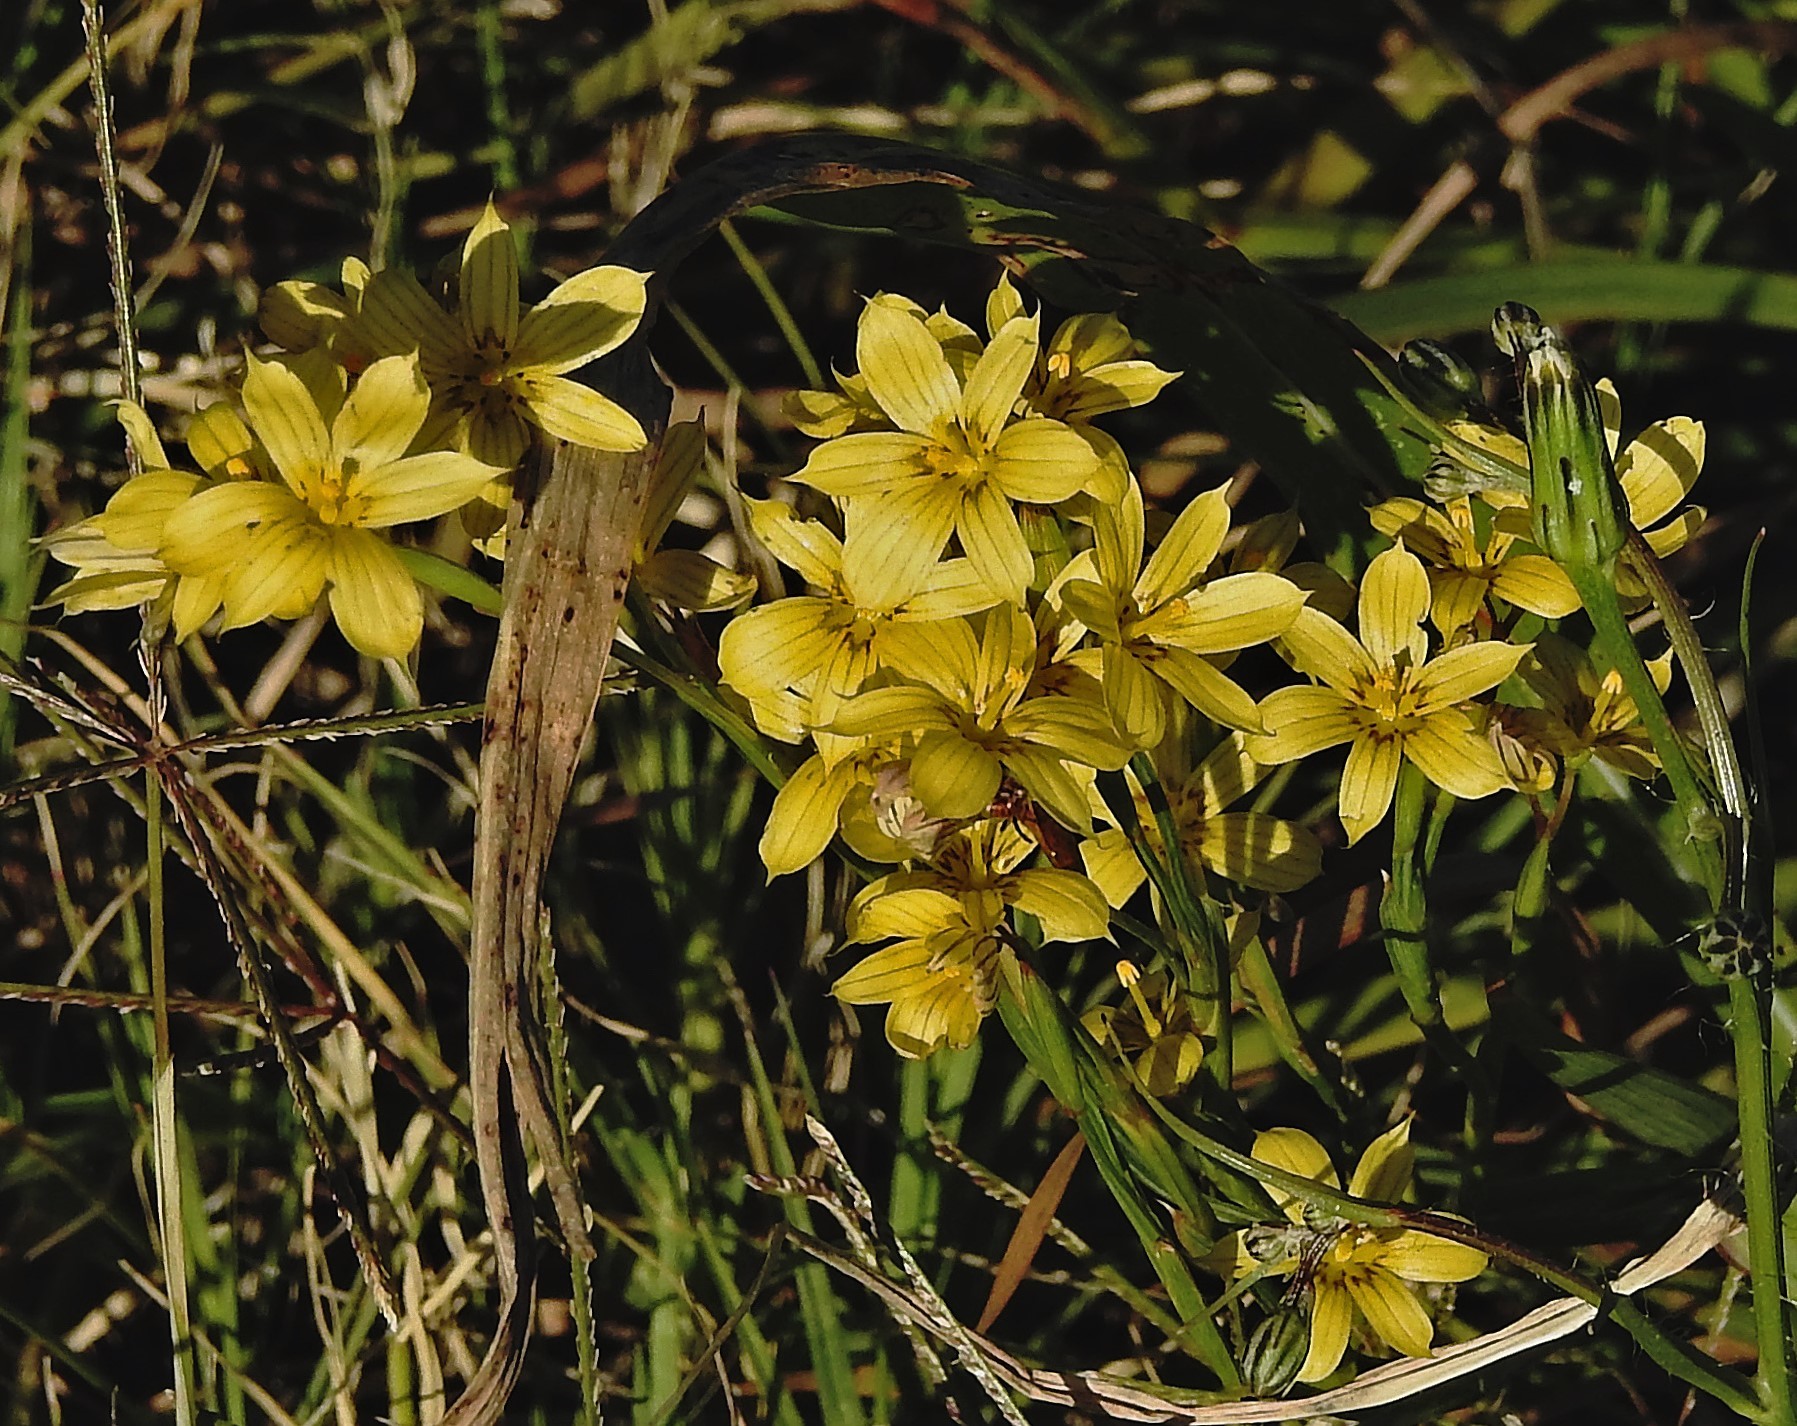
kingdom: Plantae
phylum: Tracheophyta
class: Liliopsida
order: Asparagales
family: Iridaceae
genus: Sisyrinchium
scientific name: Sisyrinchium pachyrhizum
